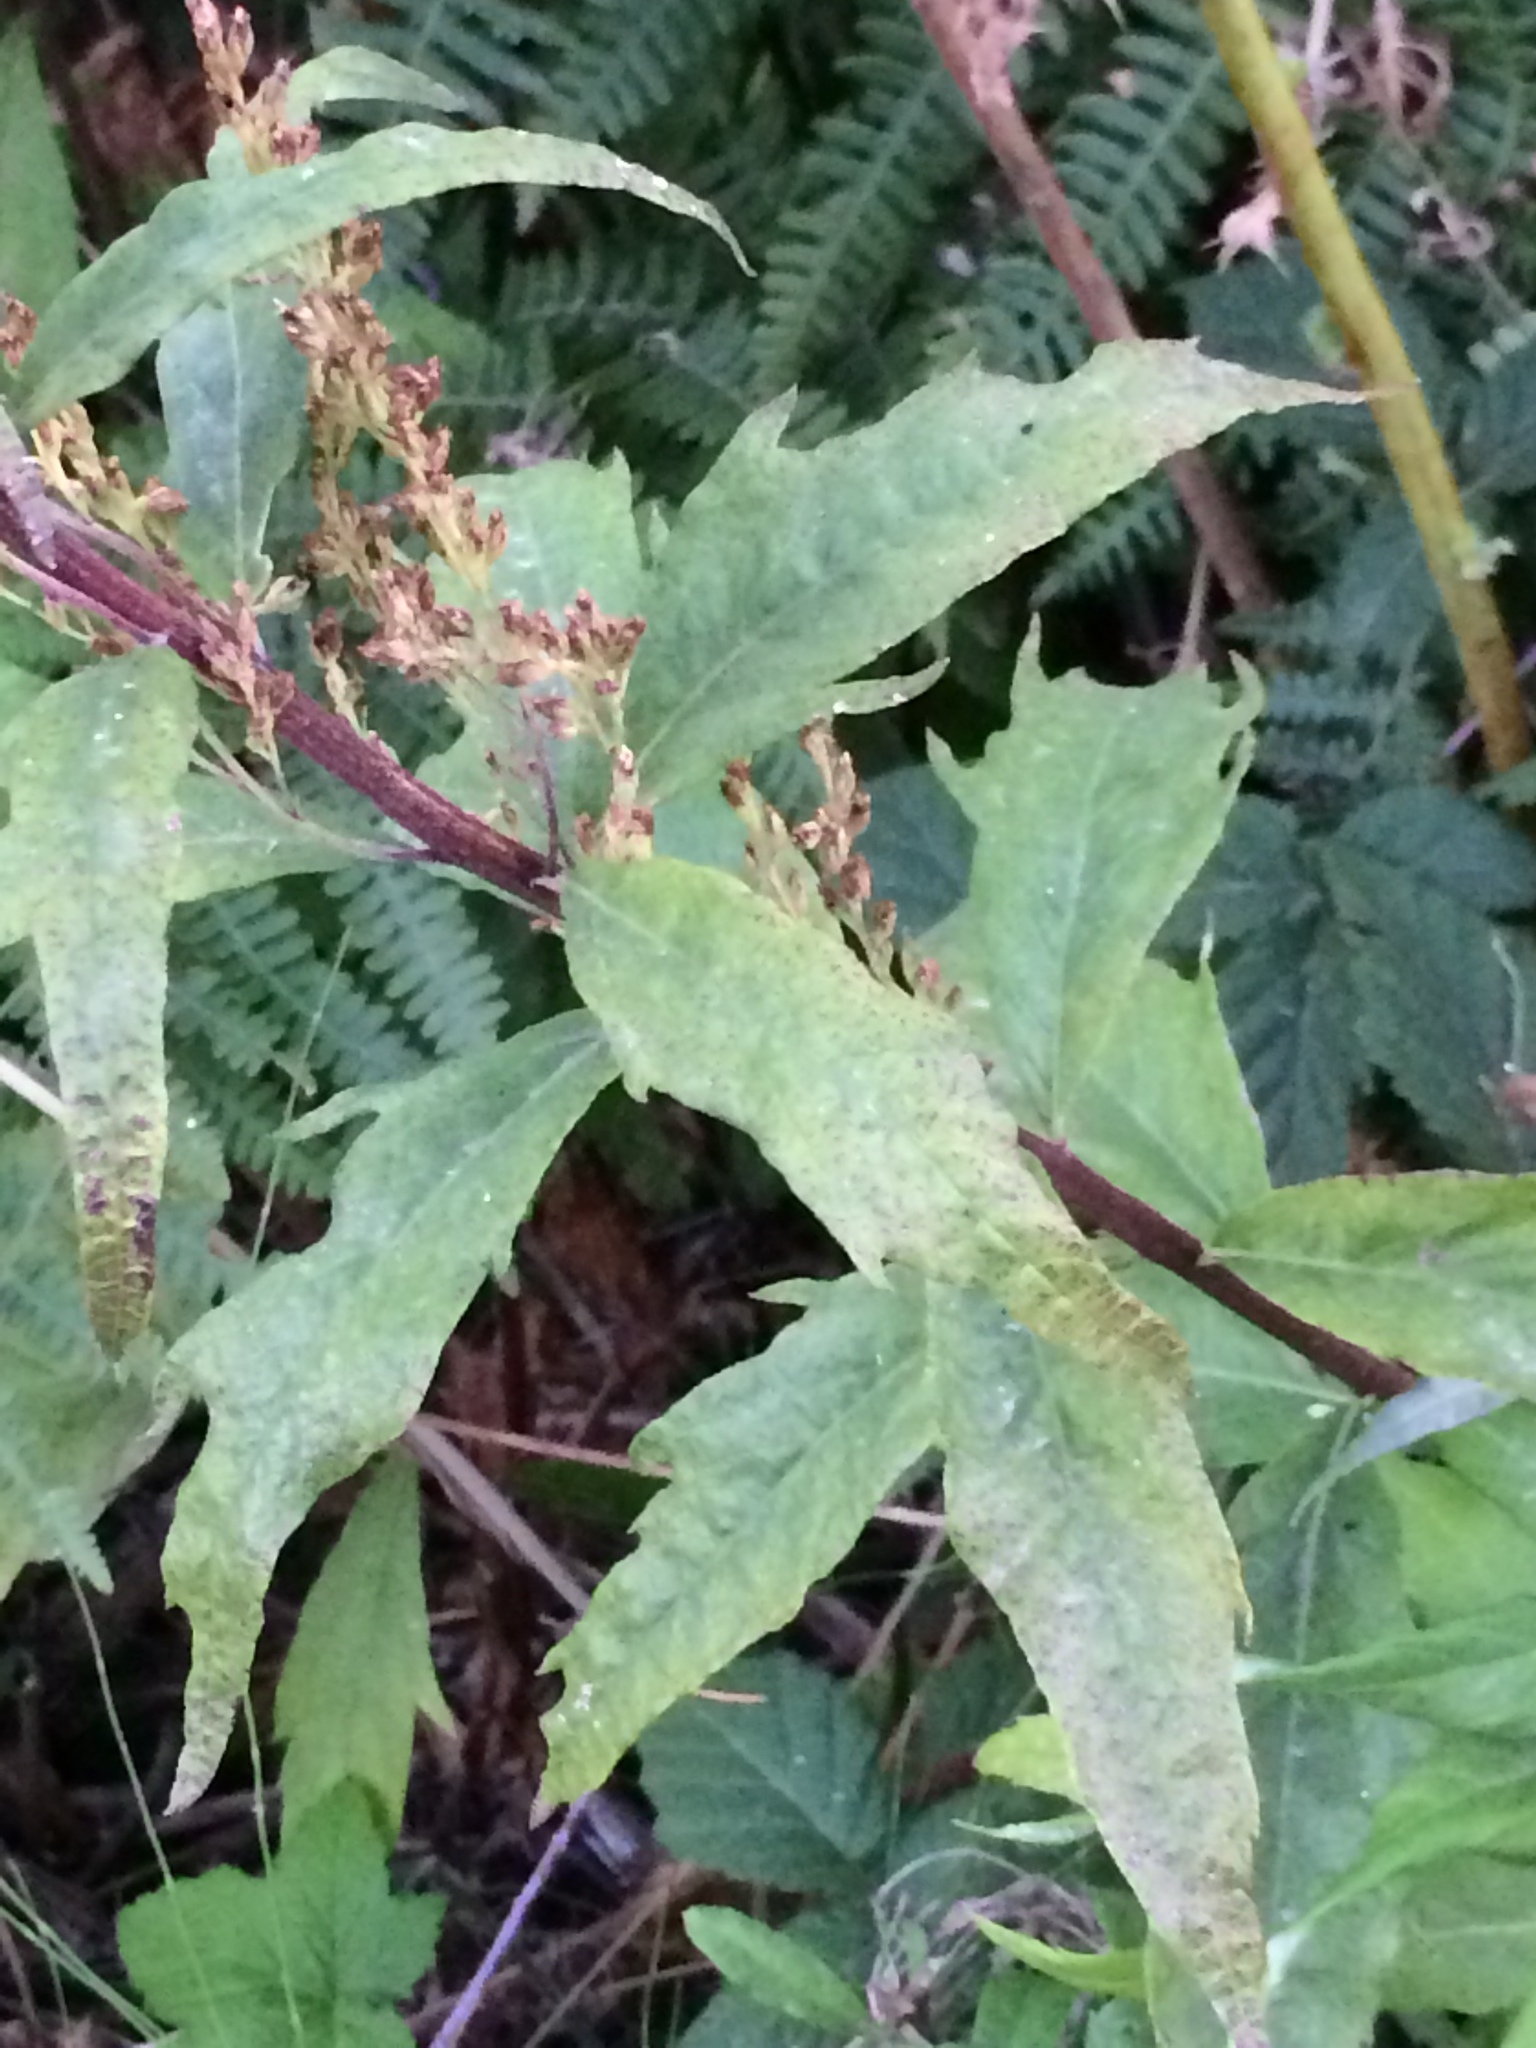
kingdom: Plantae
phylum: Tracheophyta
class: Magnoliopsida
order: Asterales
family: Asteraceae
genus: Artemisia
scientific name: Artemisia suksdorfii
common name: Suksdorf sagewort
